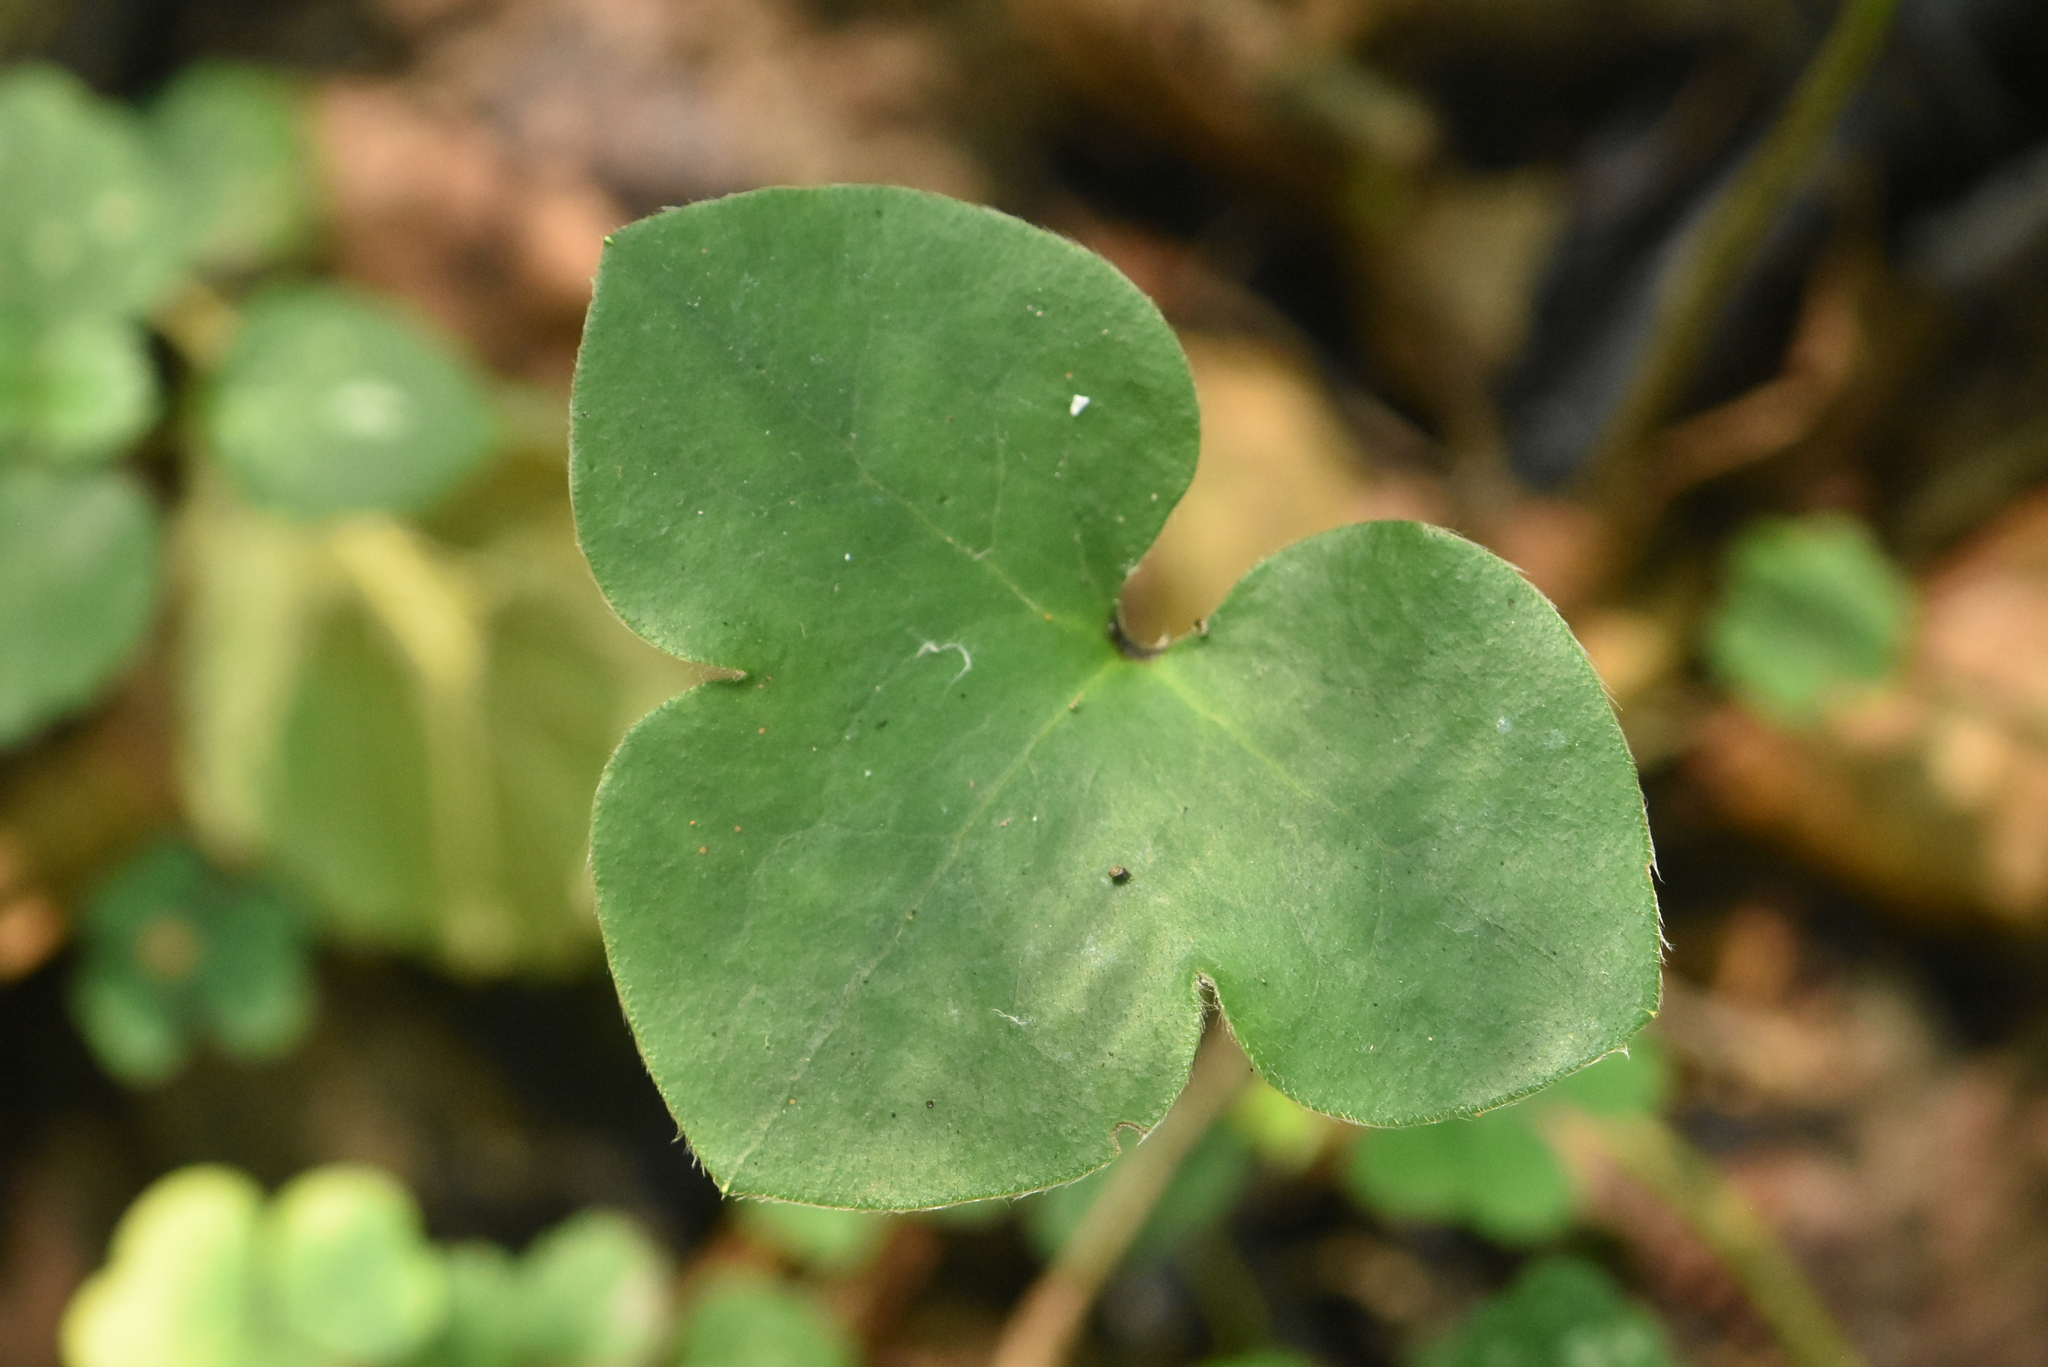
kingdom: Plantae
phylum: Tracheophyta
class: Magnoliopsida
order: Ranunculales
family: Ranunculaceae
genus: Hepatica
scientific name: Hepatica nobilis
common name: Liverleaf
